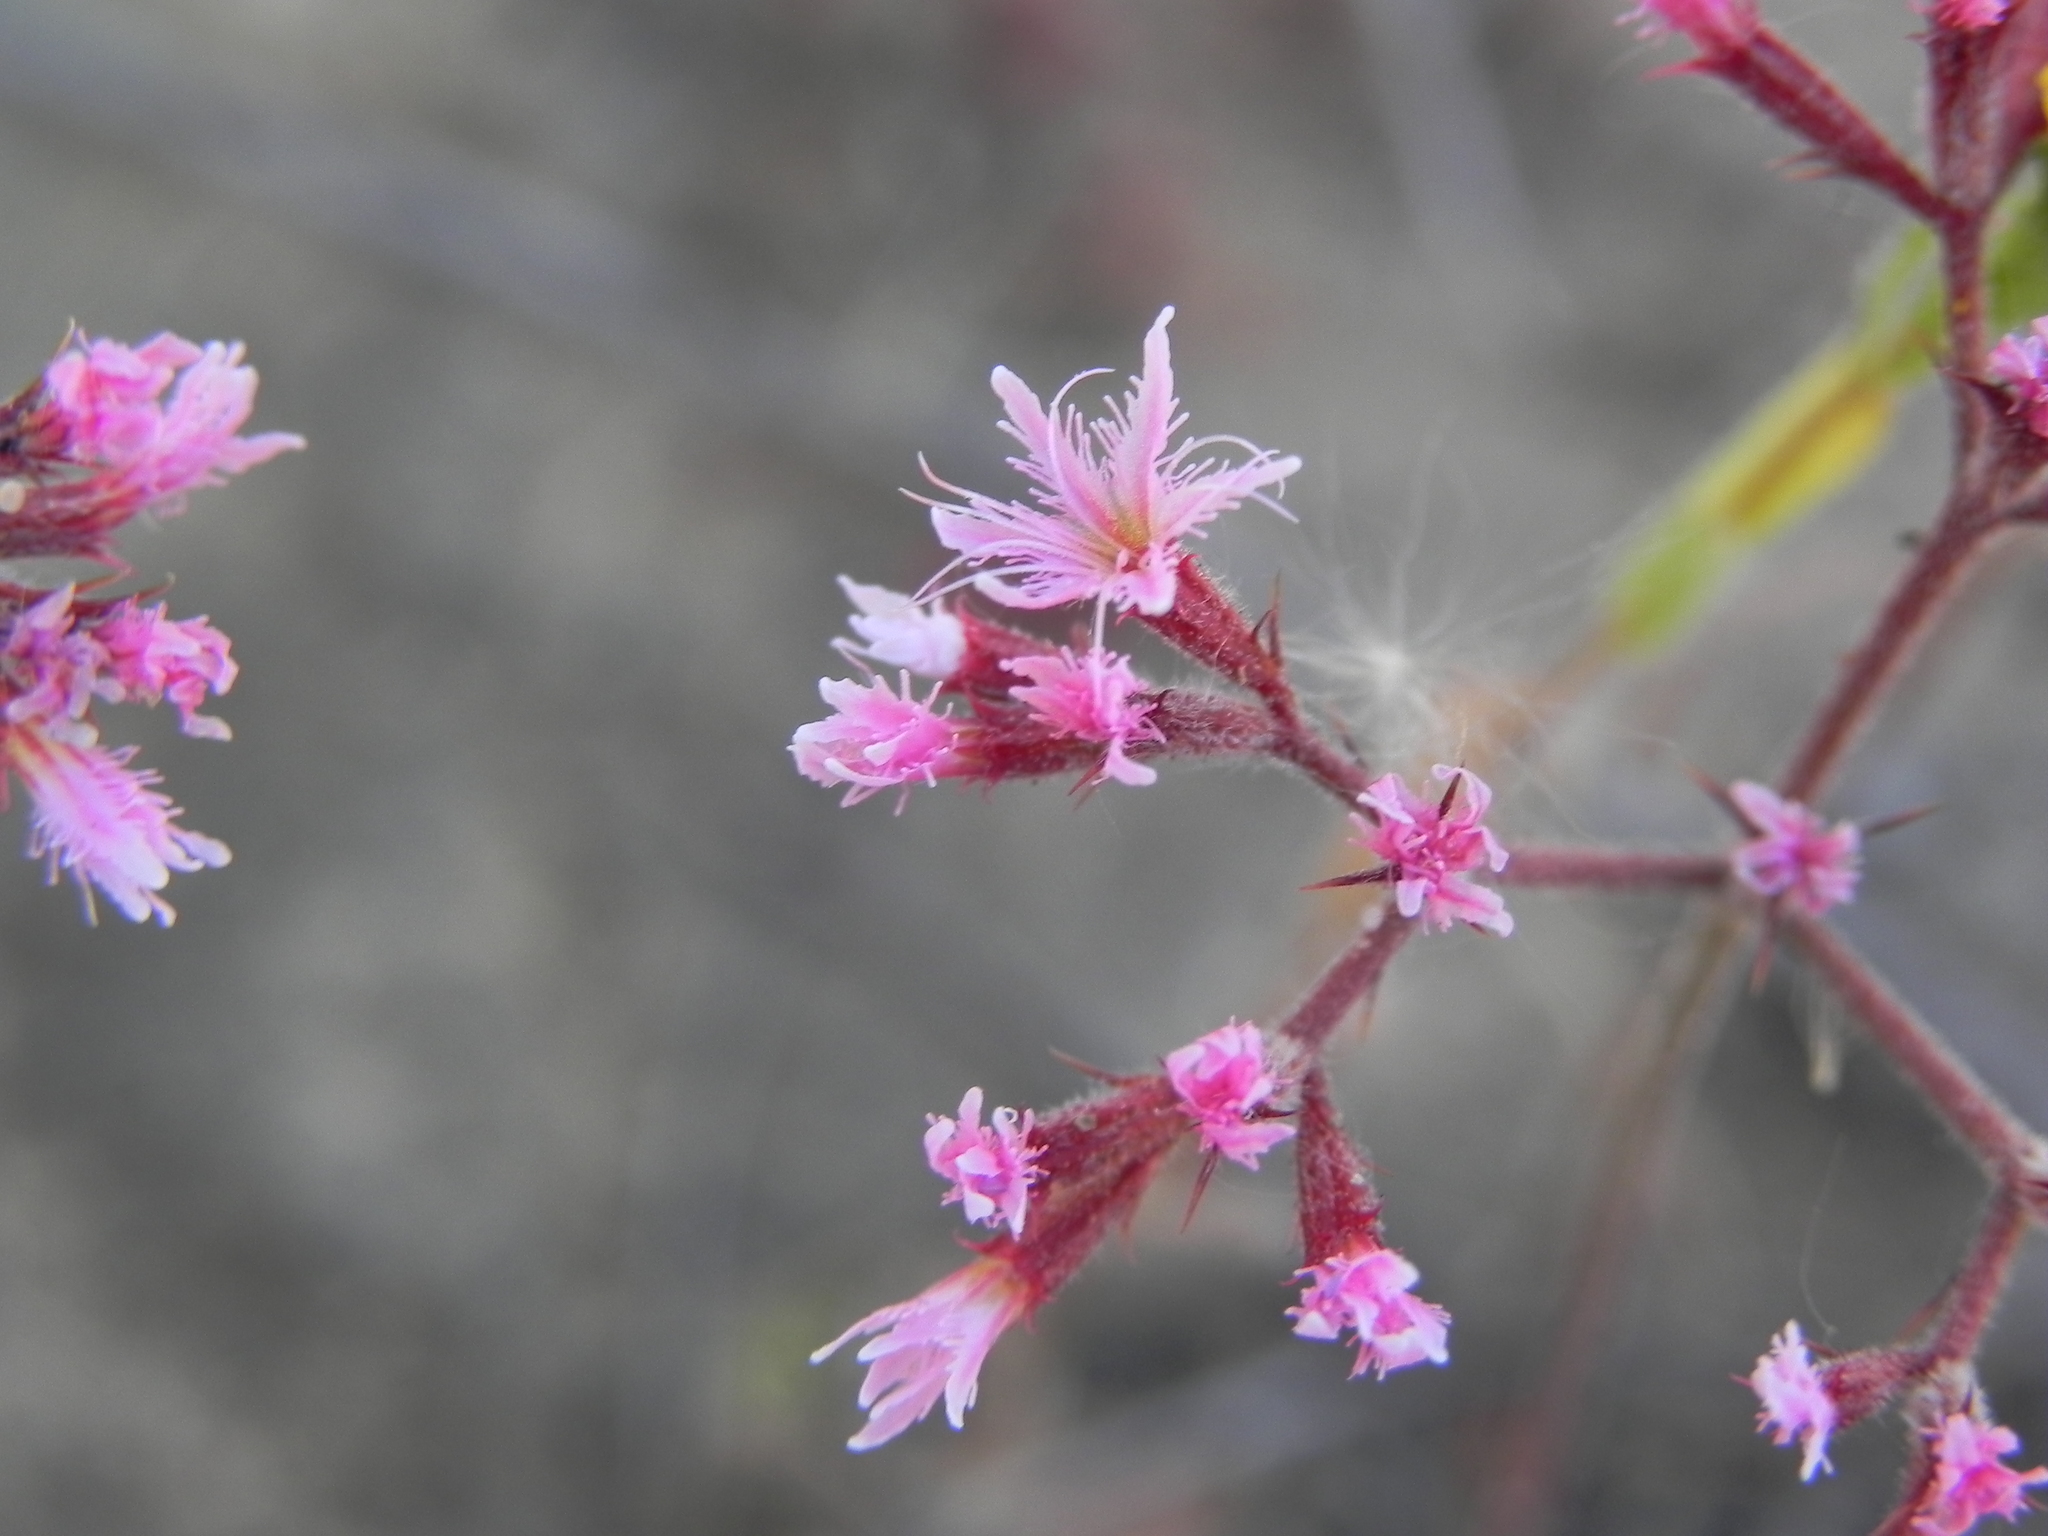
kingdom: Plantae
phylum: Tracheophyta
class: Magnoliopsida
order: Caryophyllales
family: Polygonaceae
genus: Chorizanthe
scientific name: Chorizanthe fimbriata
